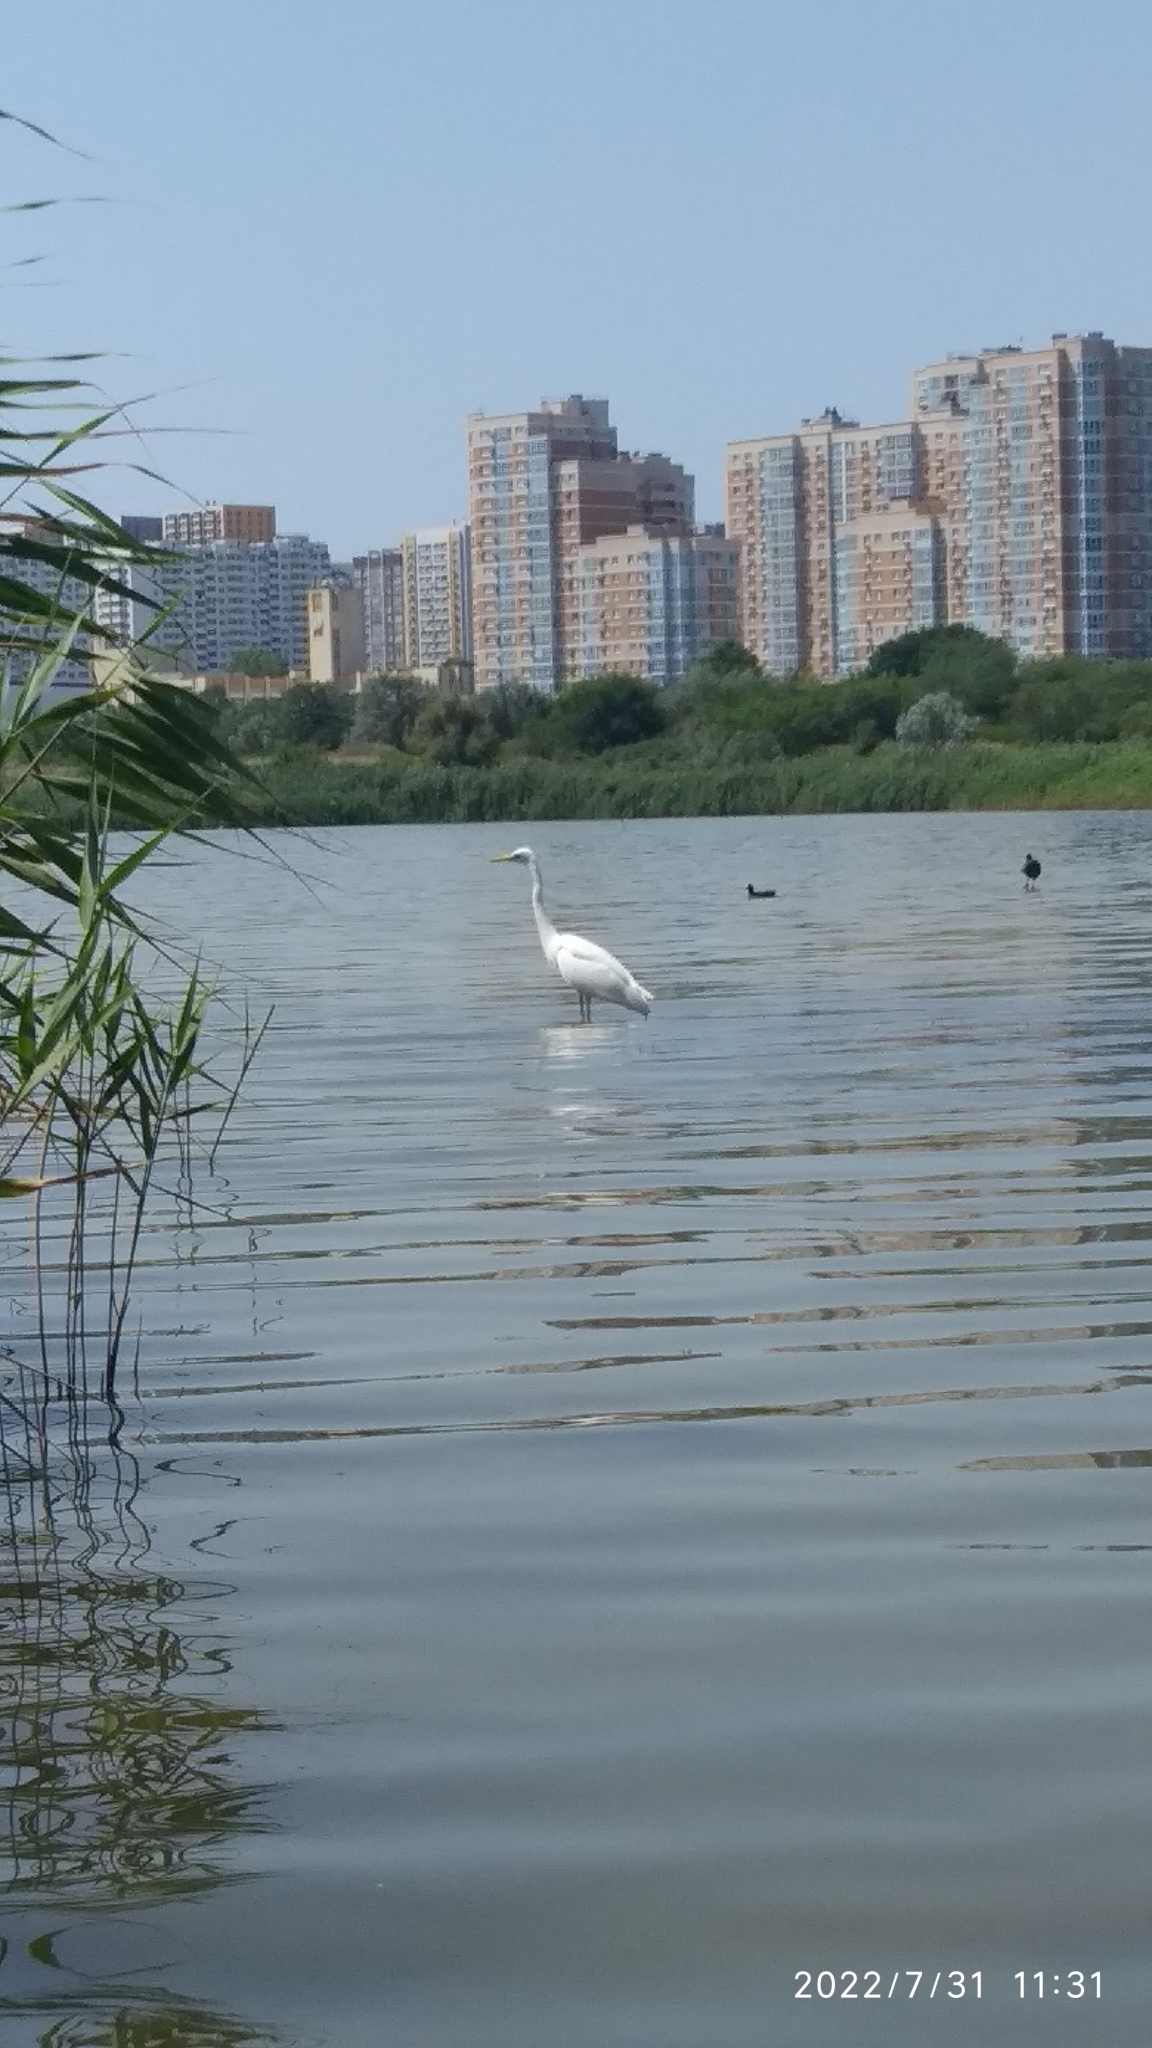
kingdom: Animalia
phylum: Chordata
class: Aves
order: Pelecaniformes
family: Ardeidae
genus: Ardea
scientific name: Ardea alba
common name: Great egret
